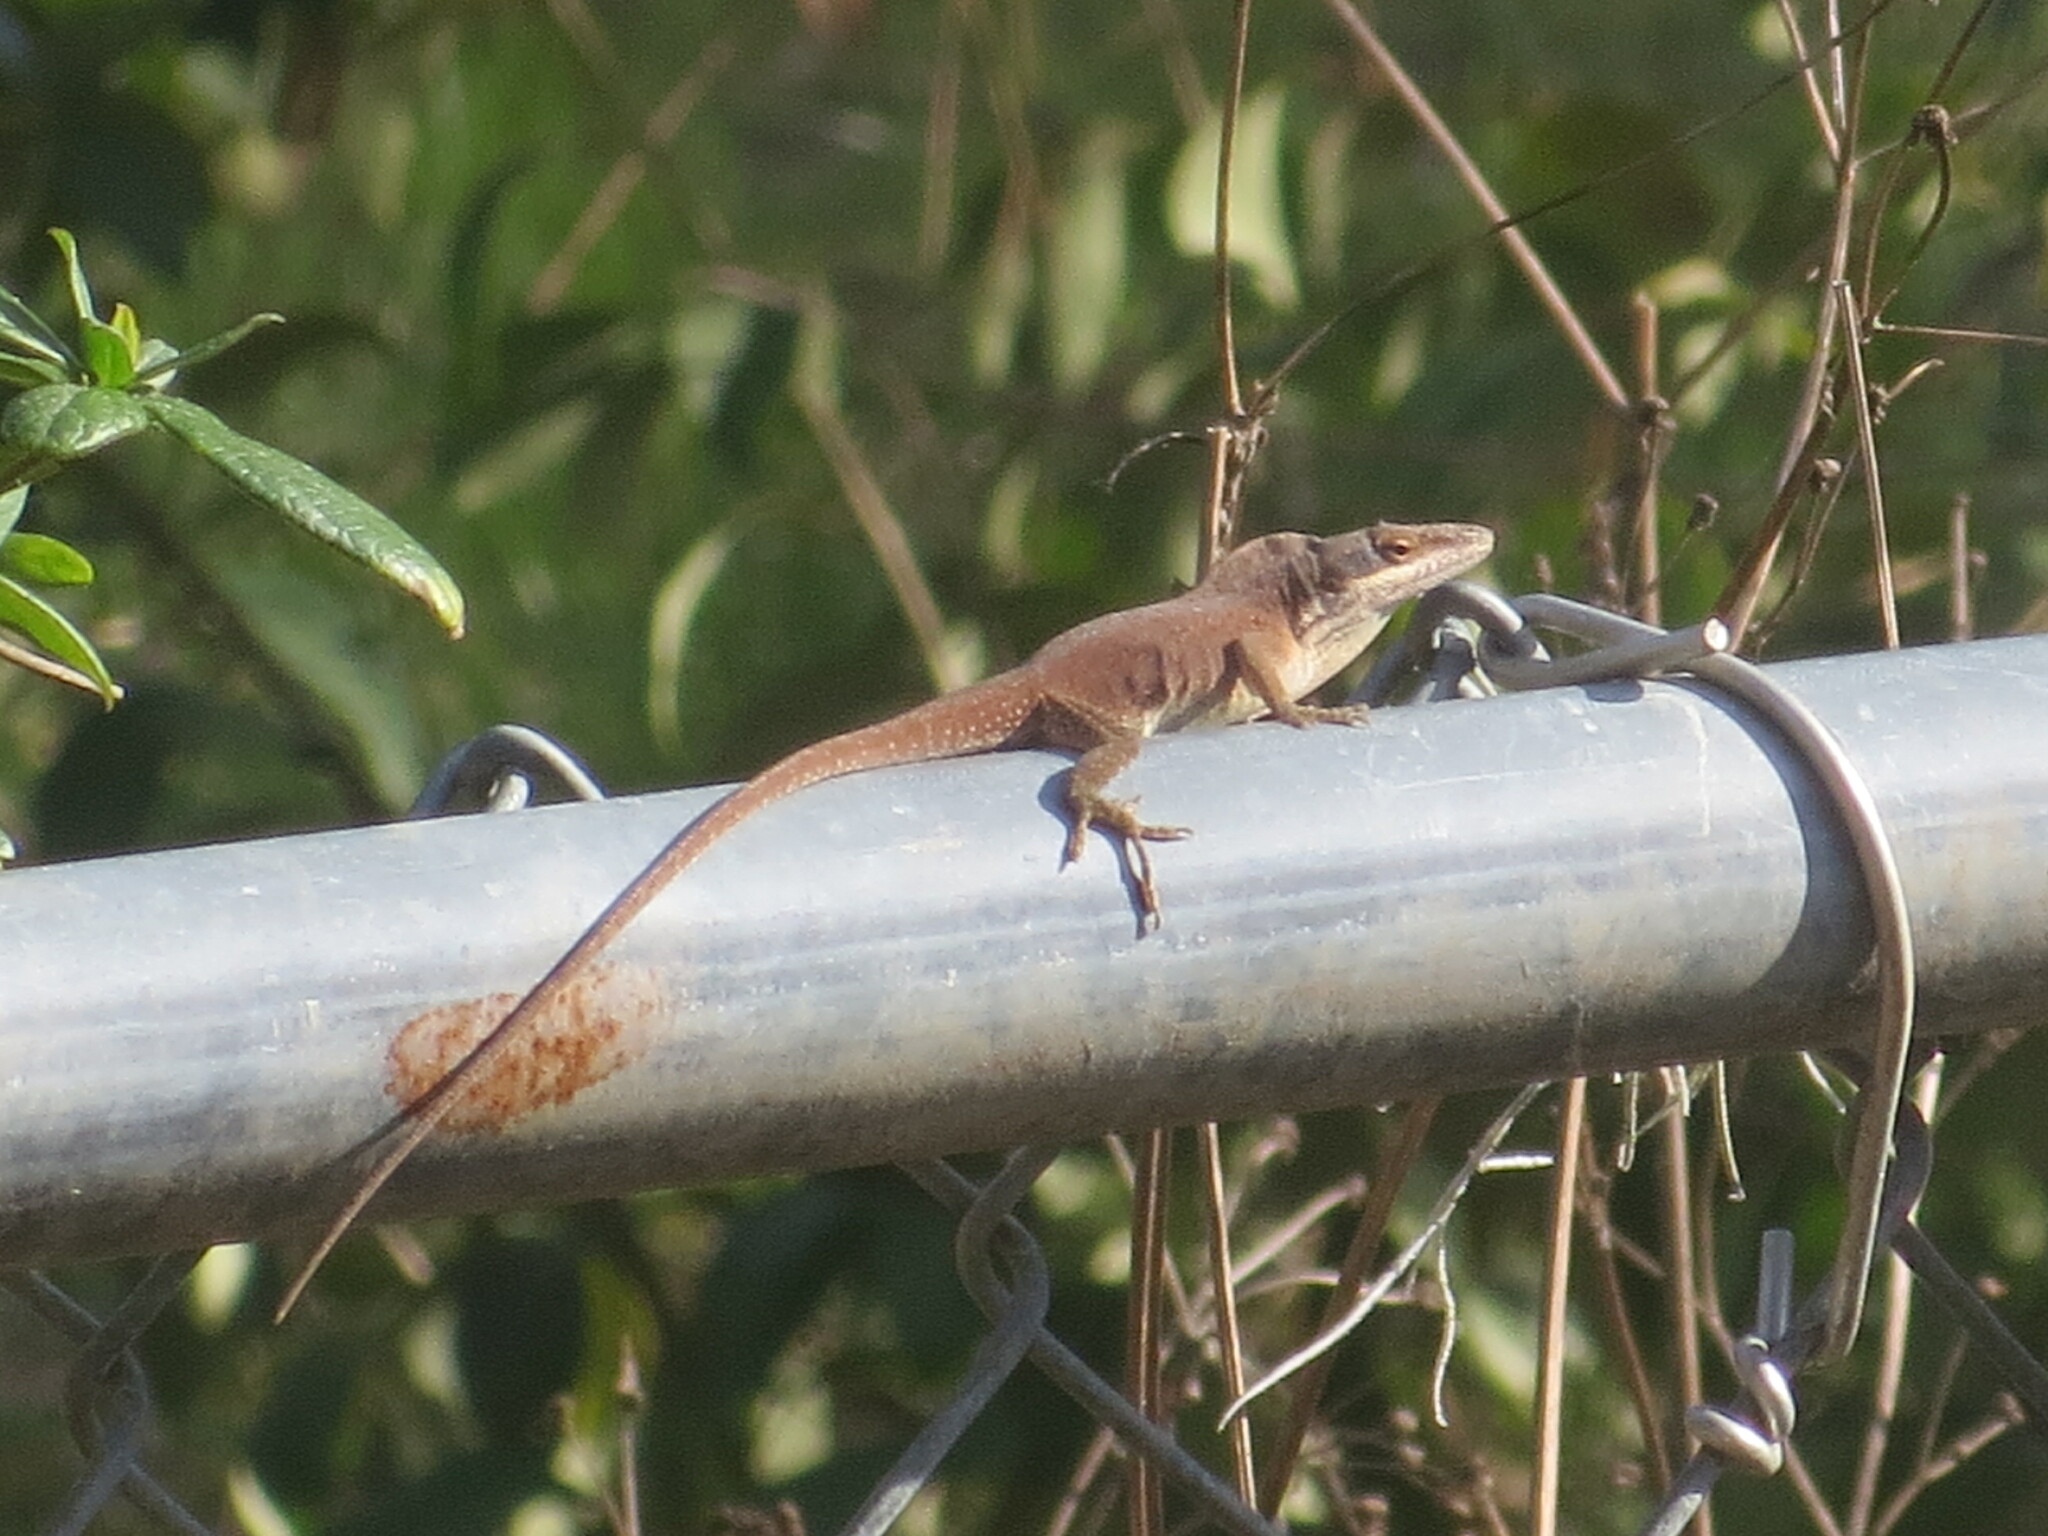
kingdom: Animalia
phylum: Chordata
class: Squamata
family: Dactyloidae
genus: Anolis
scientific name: Anolis carolinensis
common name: Green anole
